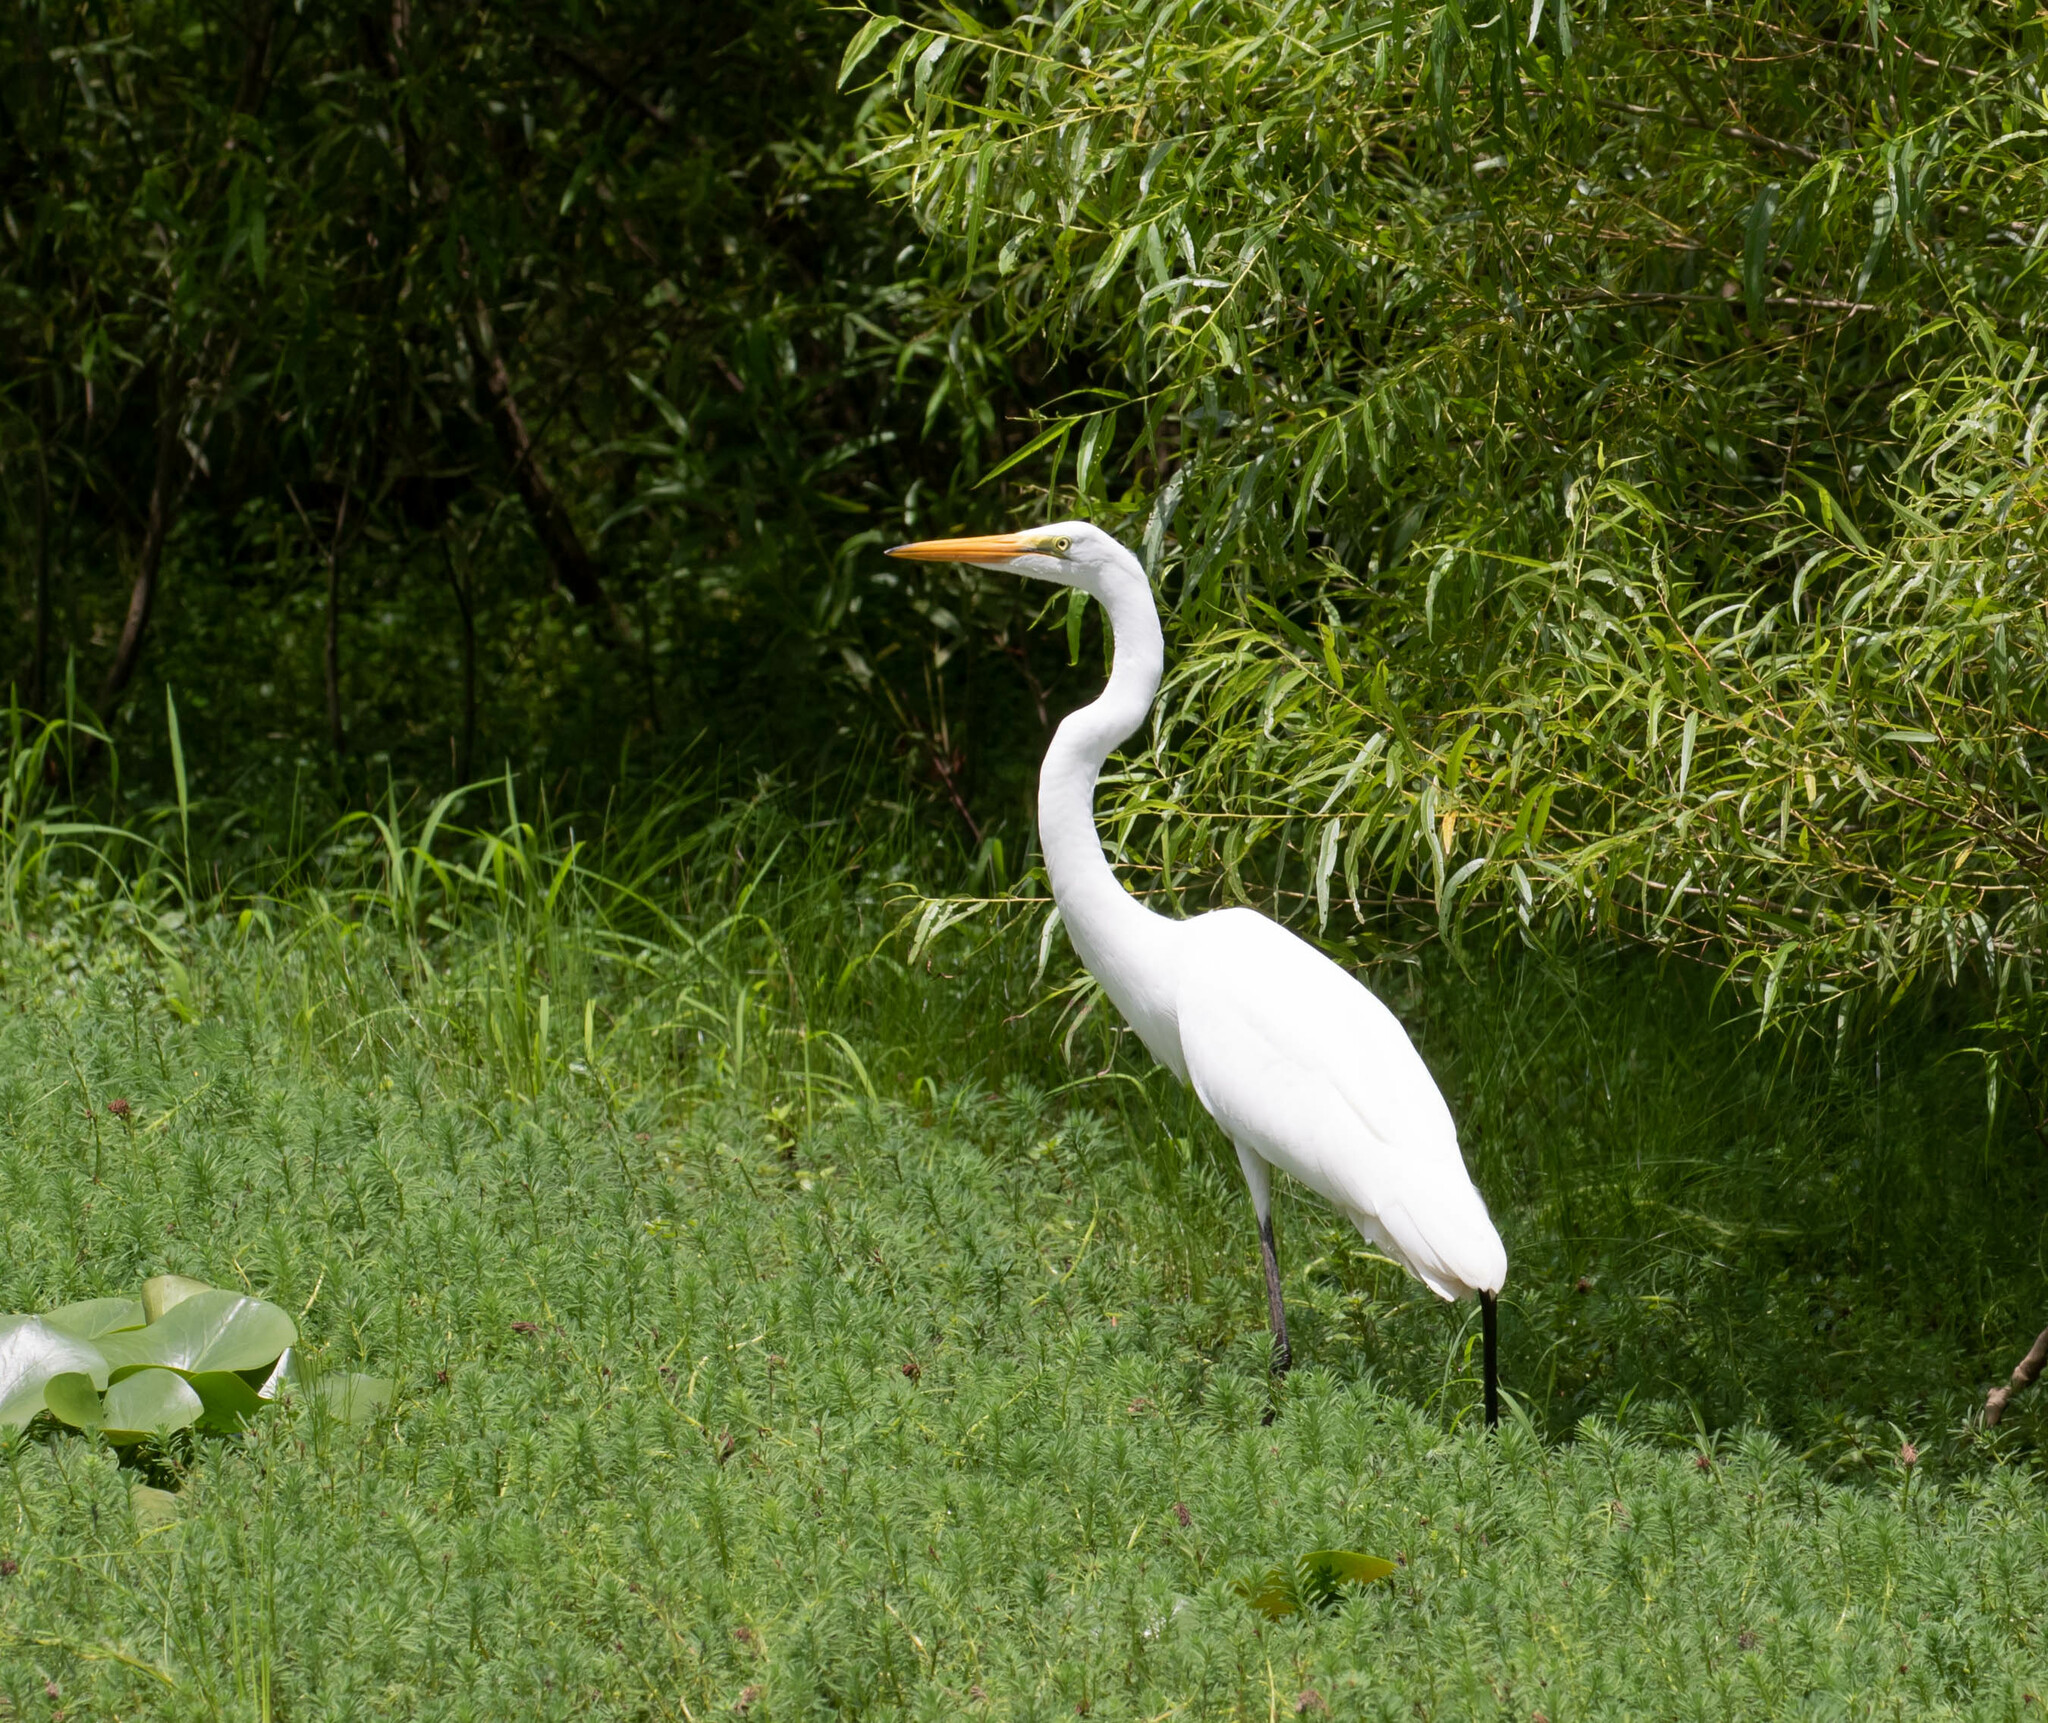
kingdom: Animalia
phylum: Chordata
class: Aves
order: Pelecaniformes
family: Ardeidae
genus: Ardea
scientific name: Ardea alba
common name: Great egret
